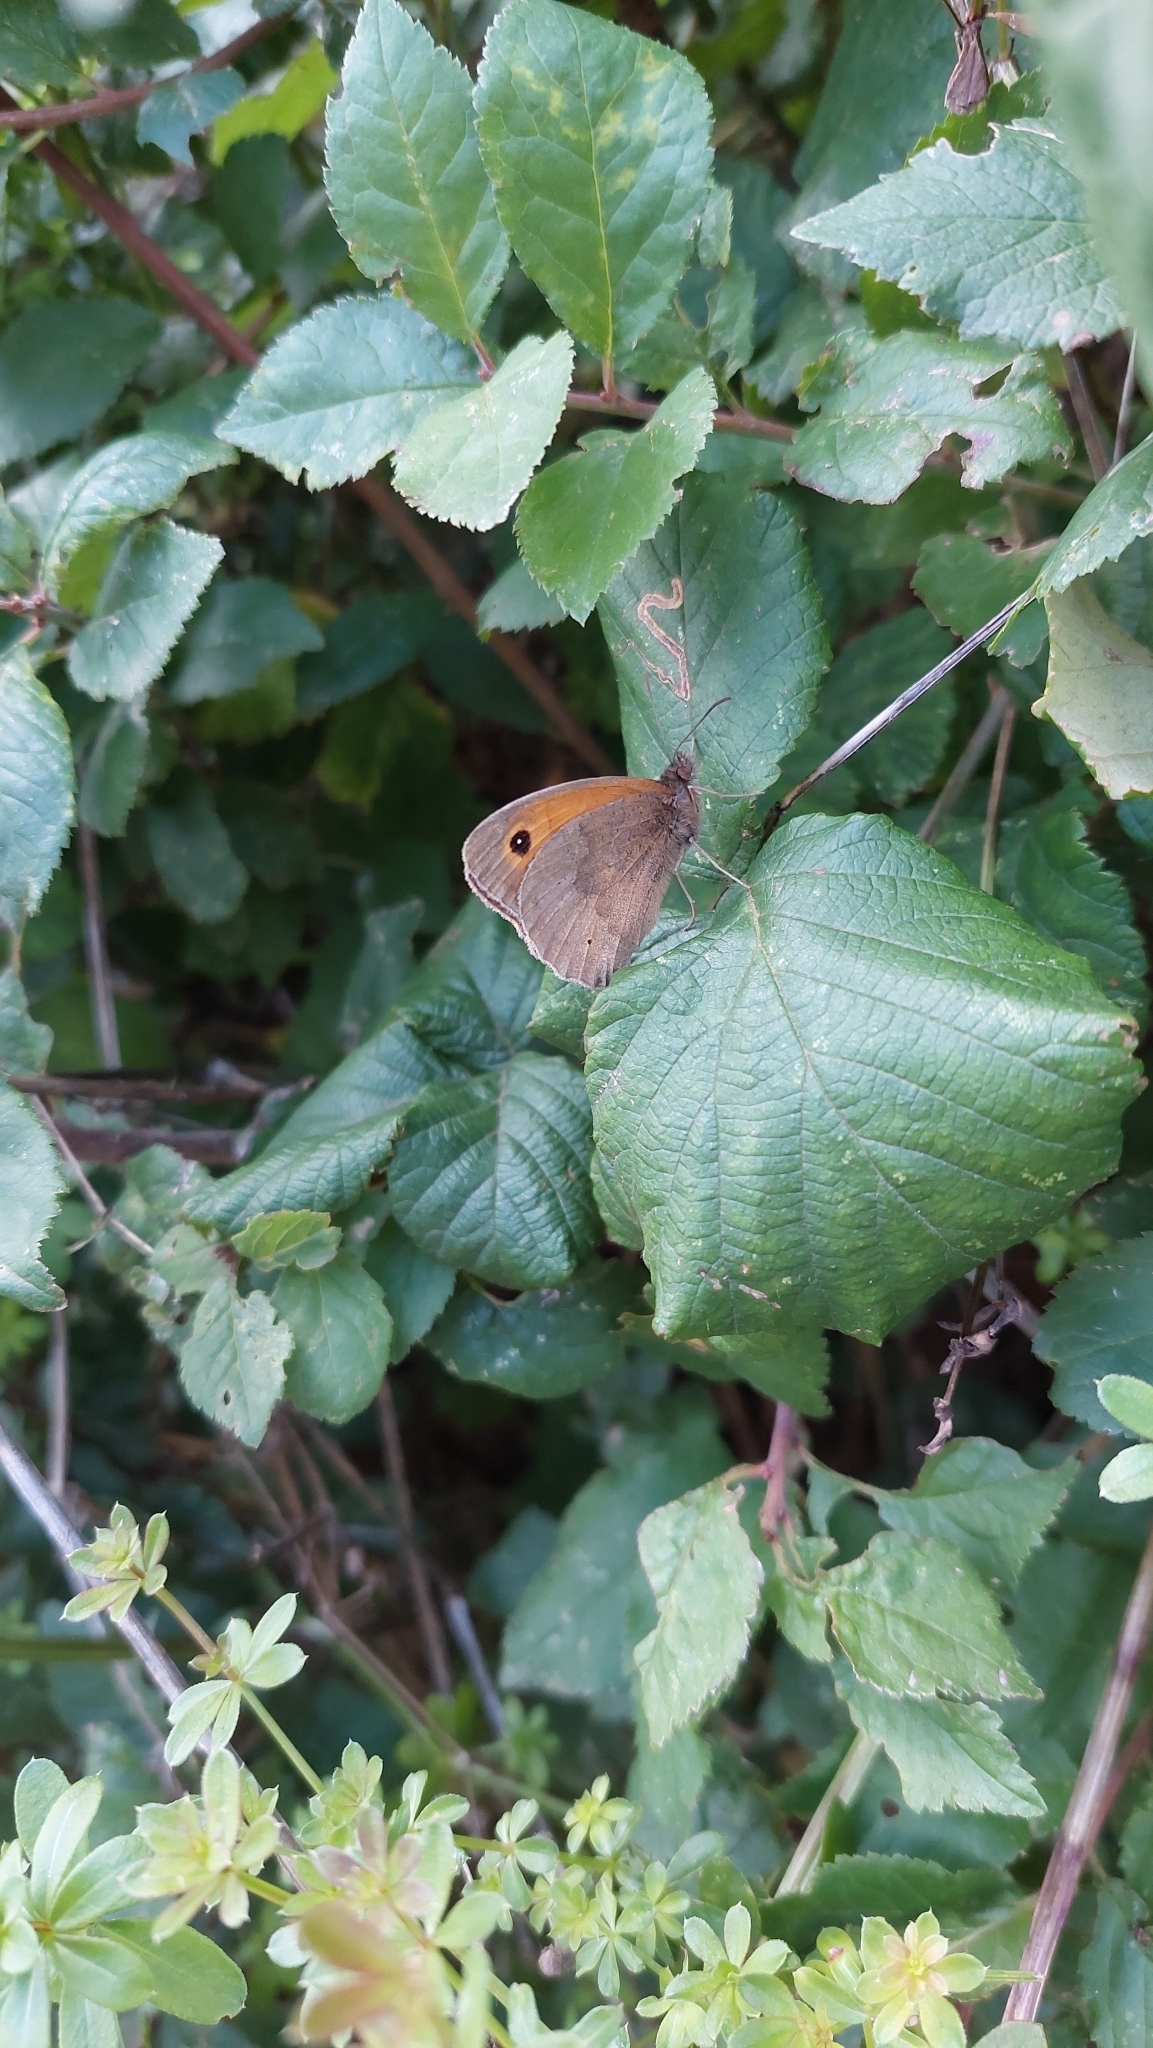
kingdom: Animalia
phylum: Arthropoda
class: Insecta
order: Lepidoptera
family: Nymphalidae
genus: Maniola
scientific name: Maniola jurtina
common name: Meadow brown
